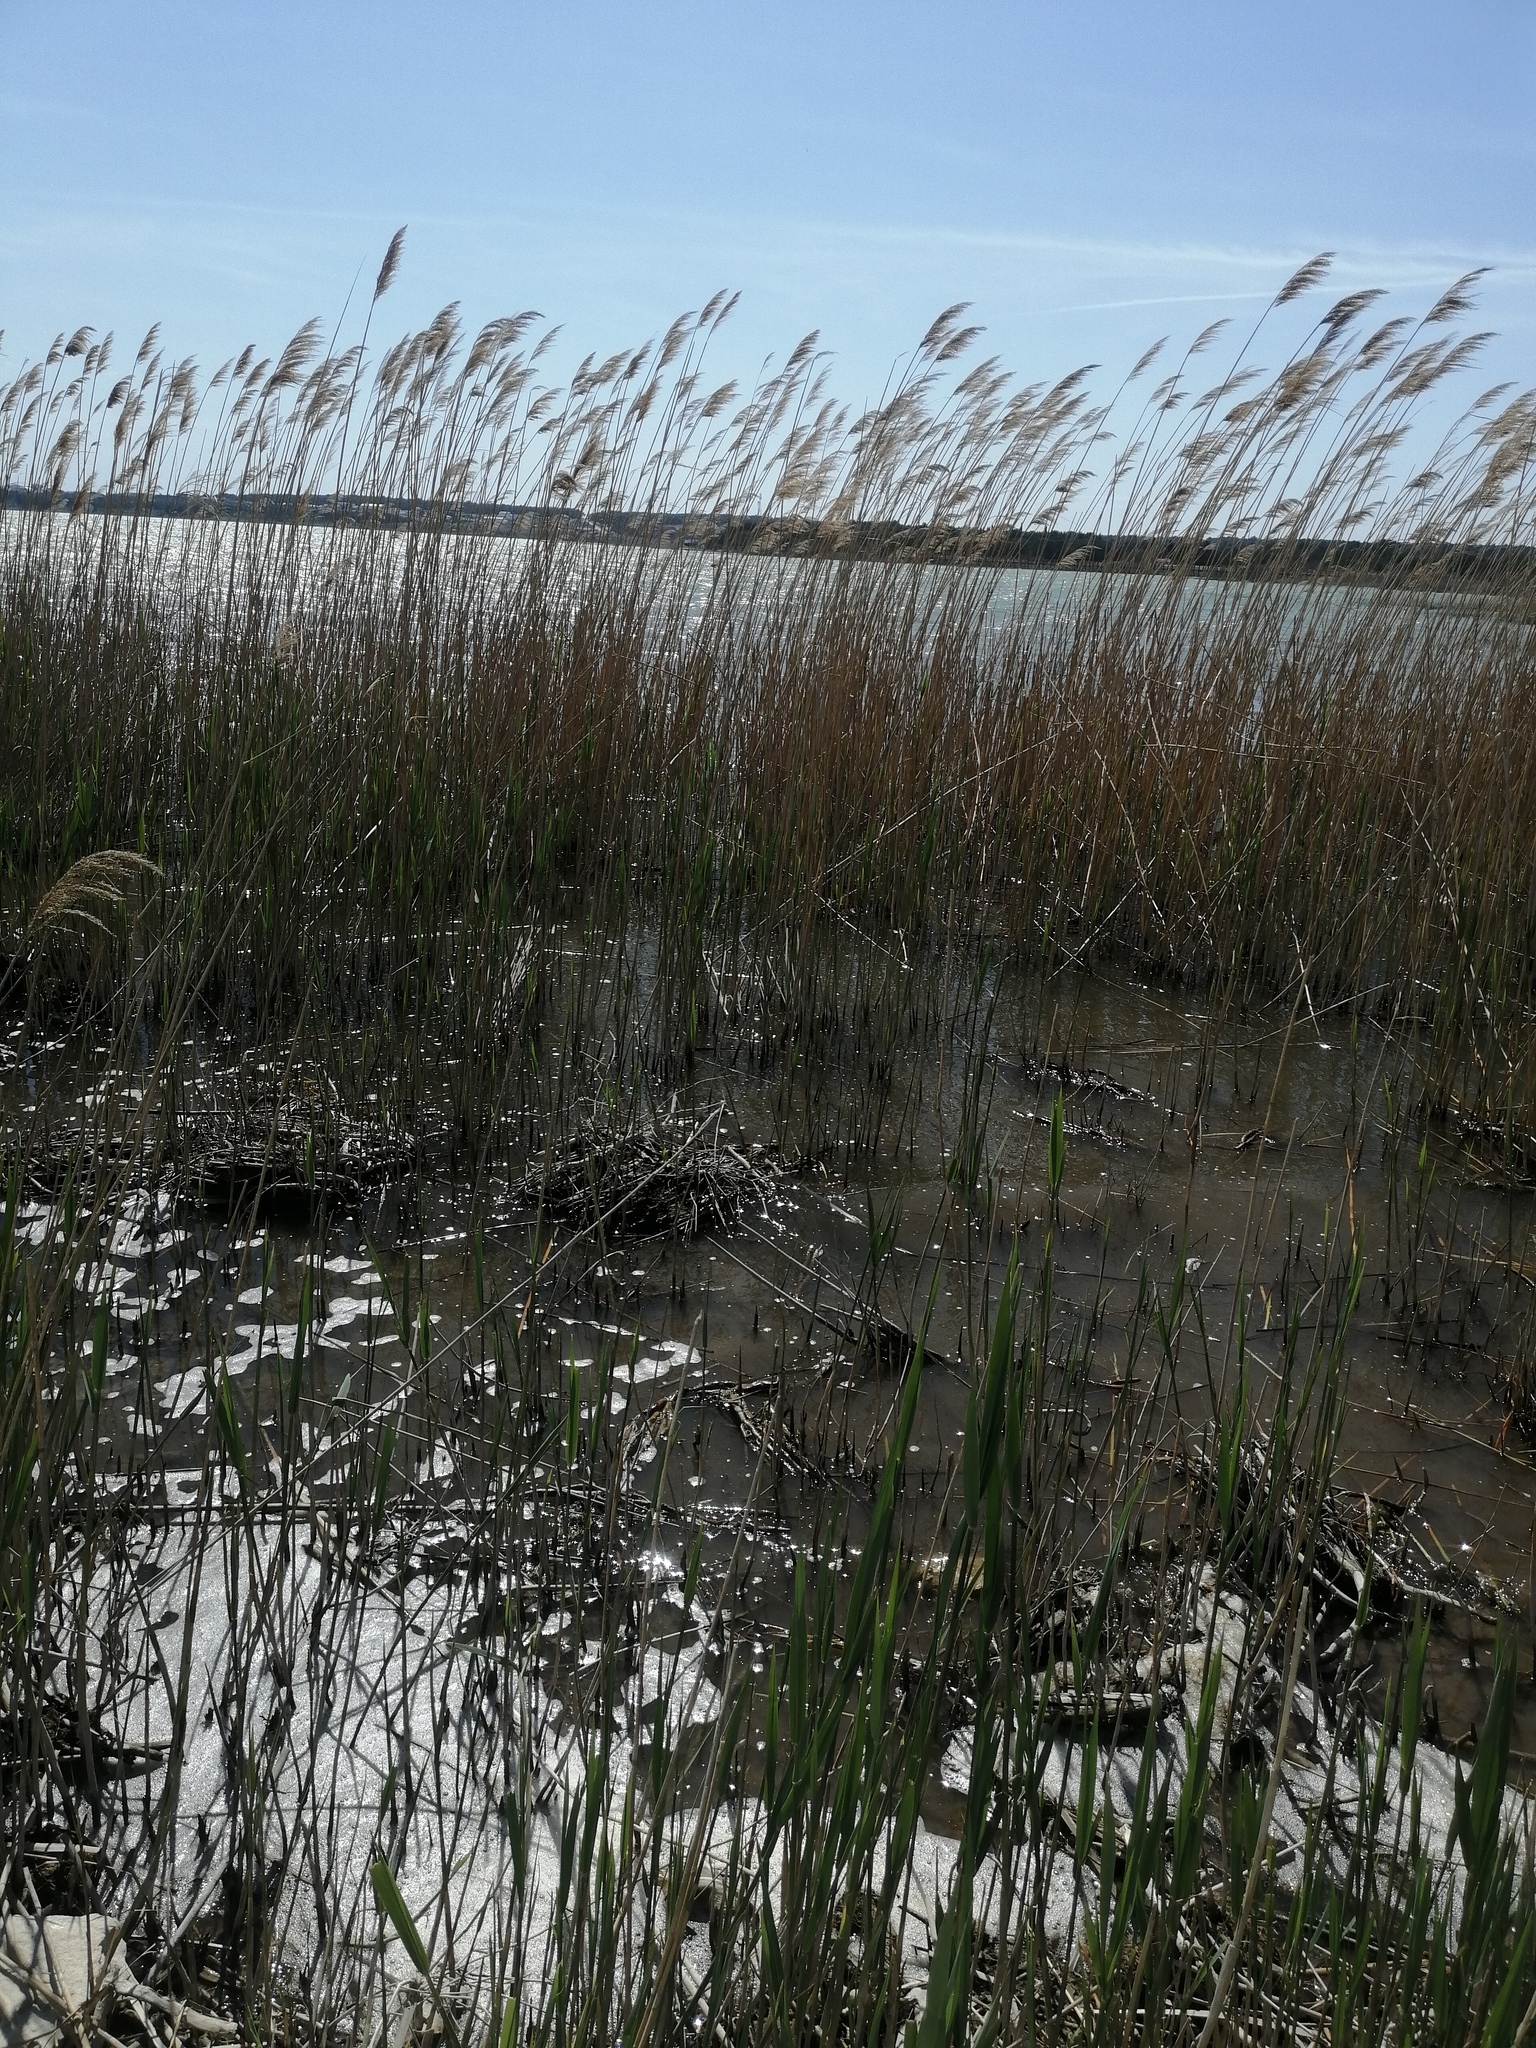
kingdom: Plantae
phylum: Tracheophyta
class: Liliopsida
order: Poales
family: Poaceae
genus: Phragmites
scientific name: Phragmites australis
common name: Common reed
